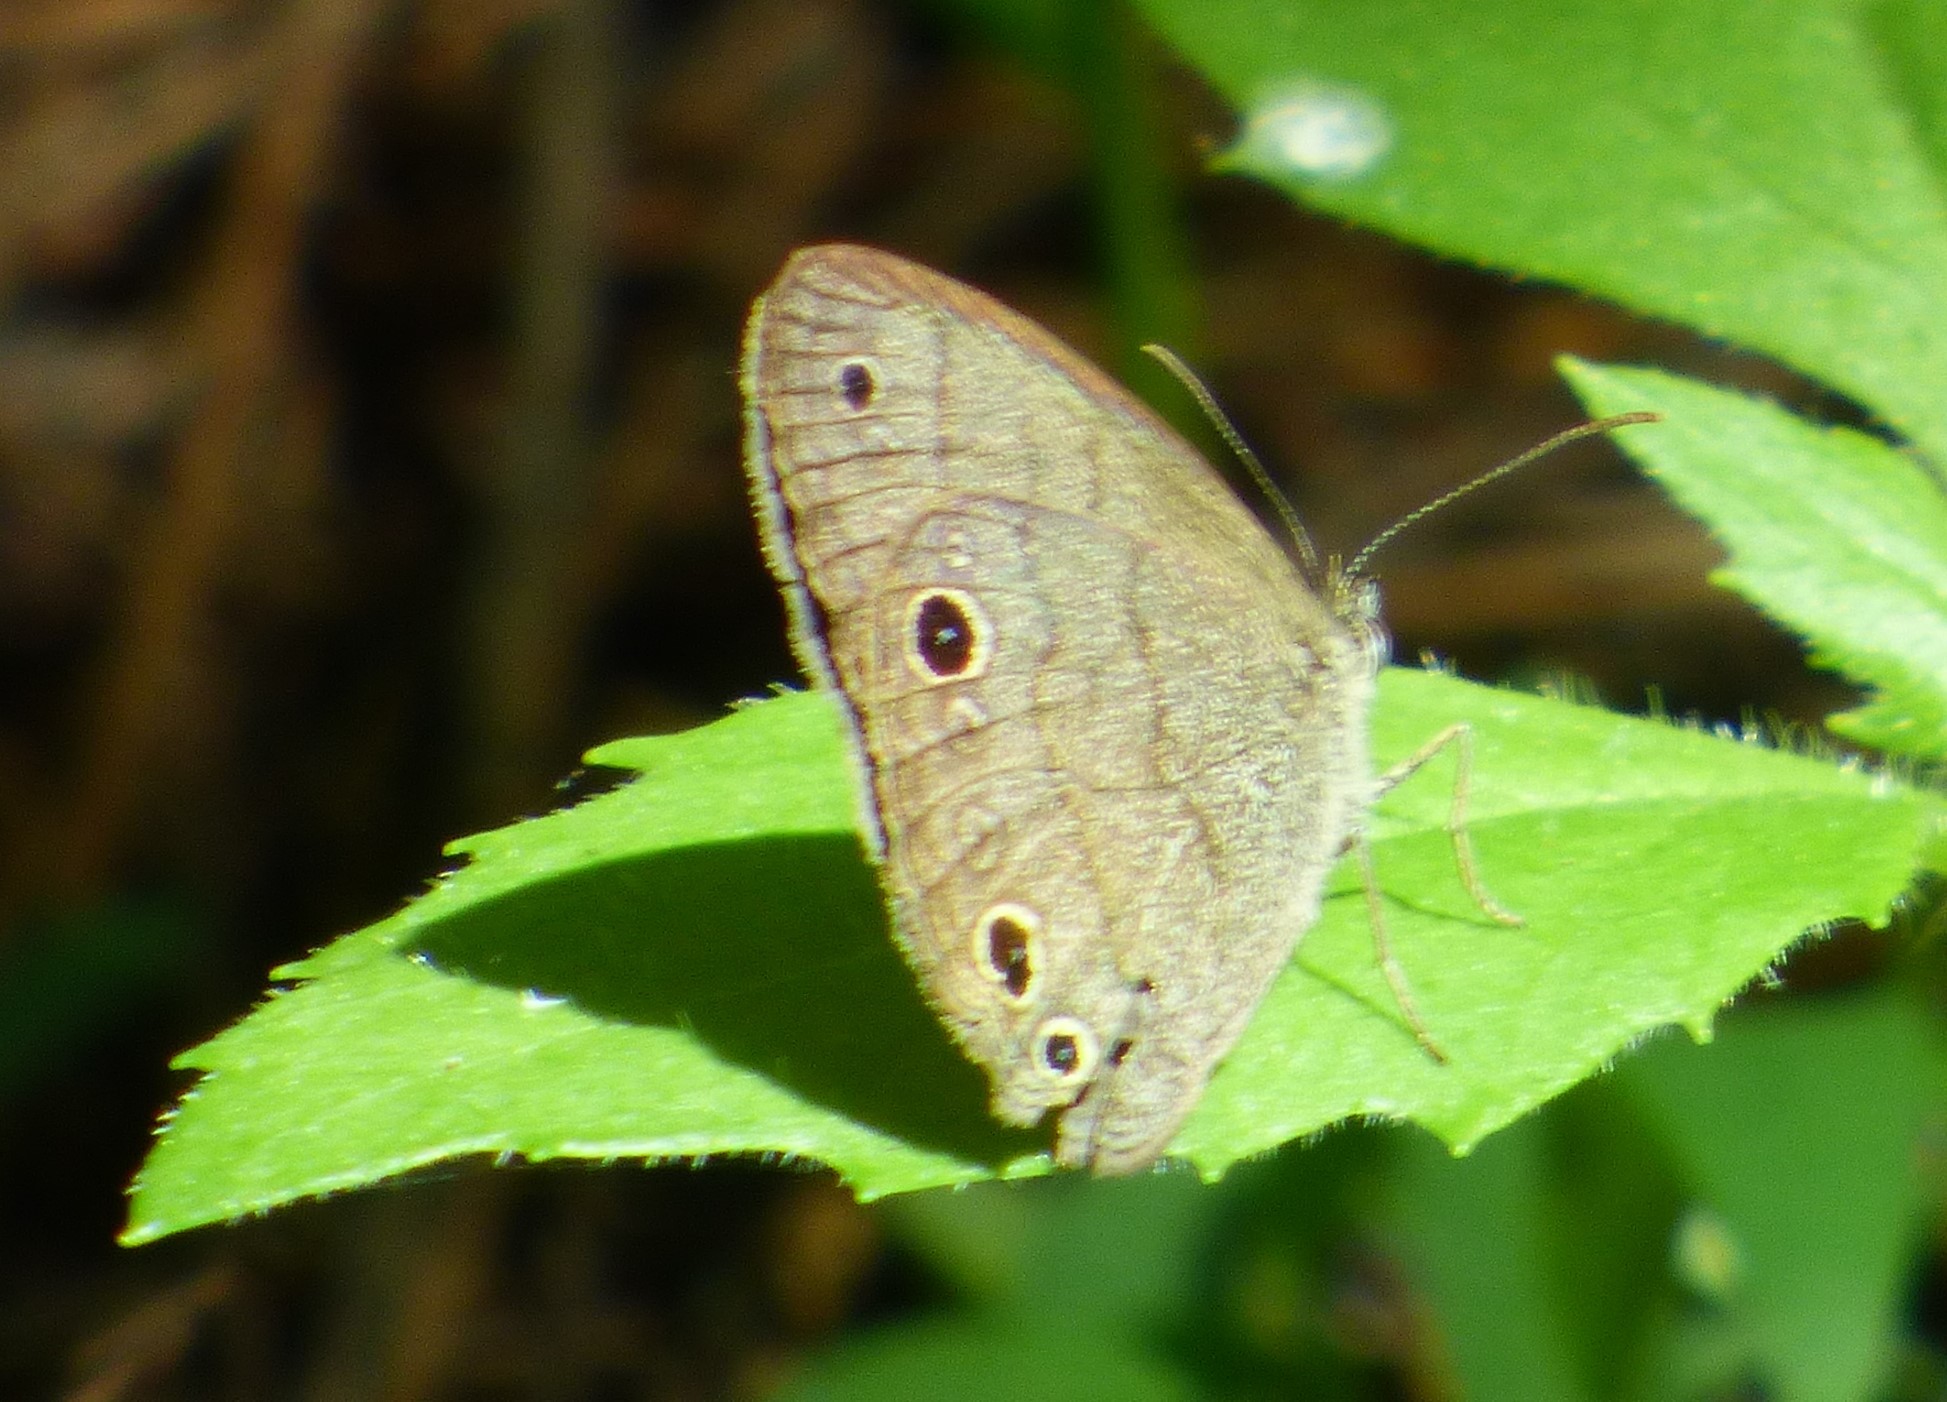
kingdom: Animalia
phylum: Arthropoda
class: Insecta
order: Lepidoptera
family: Nymphalidae
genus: Hermeuptychia
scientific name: Hermeuptychia hermes
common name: Hermes satyr
